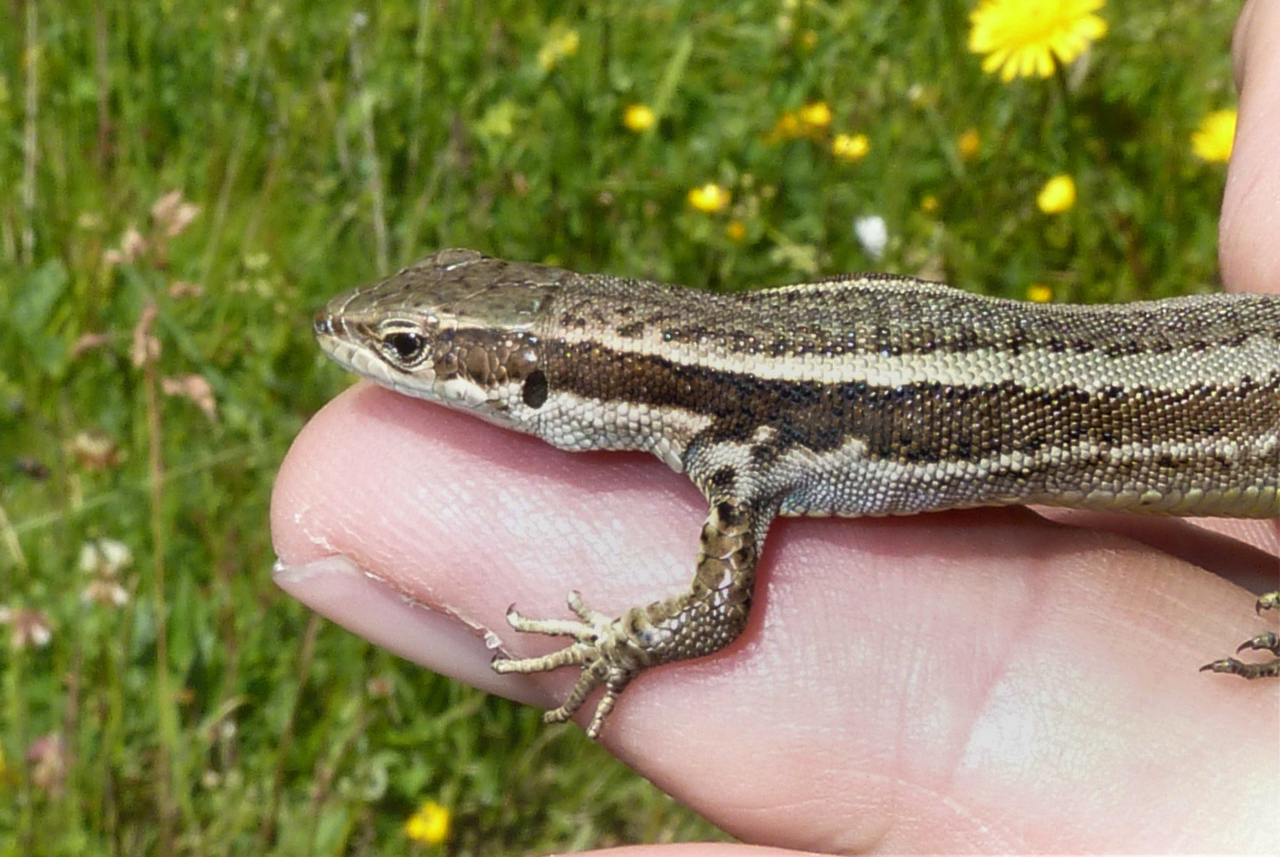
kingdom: Animalia
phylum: Chordata
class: Squamata
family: Lacertidae
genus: Darevskia
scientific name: Darevskia caucasica
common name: Caucasian llzard
